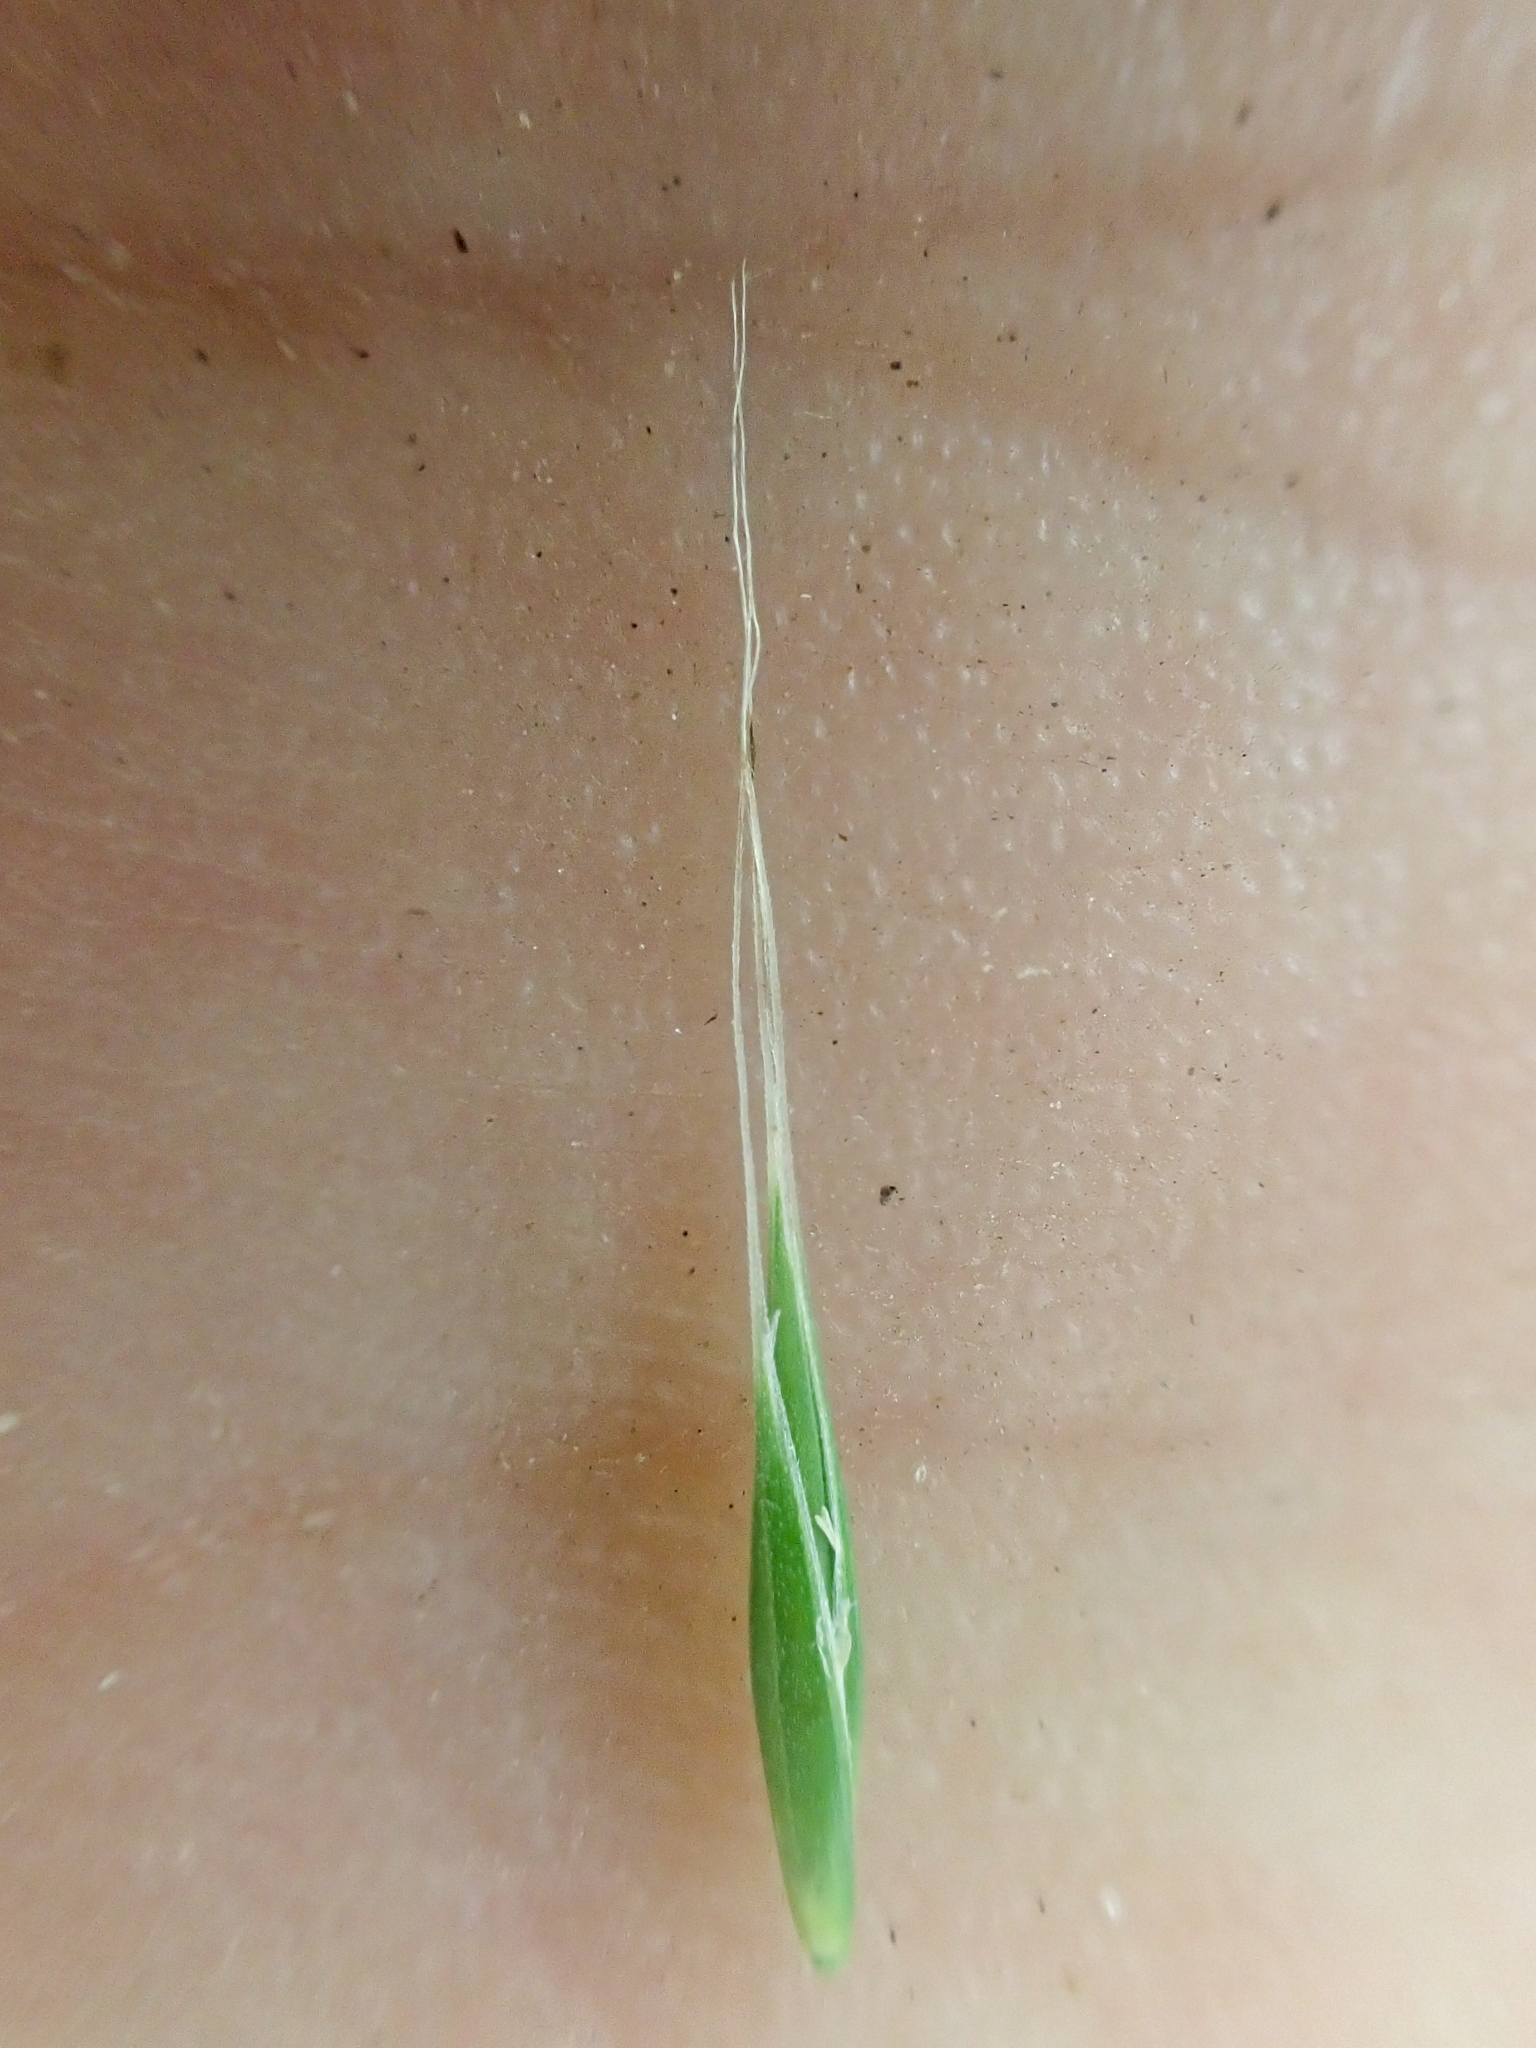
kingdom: Plantae
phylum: Tracheophyta
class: Liliopsida
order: Poales
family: Poaceae
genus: Festuca
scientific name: Festuca subulata
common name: Bearded fescue
